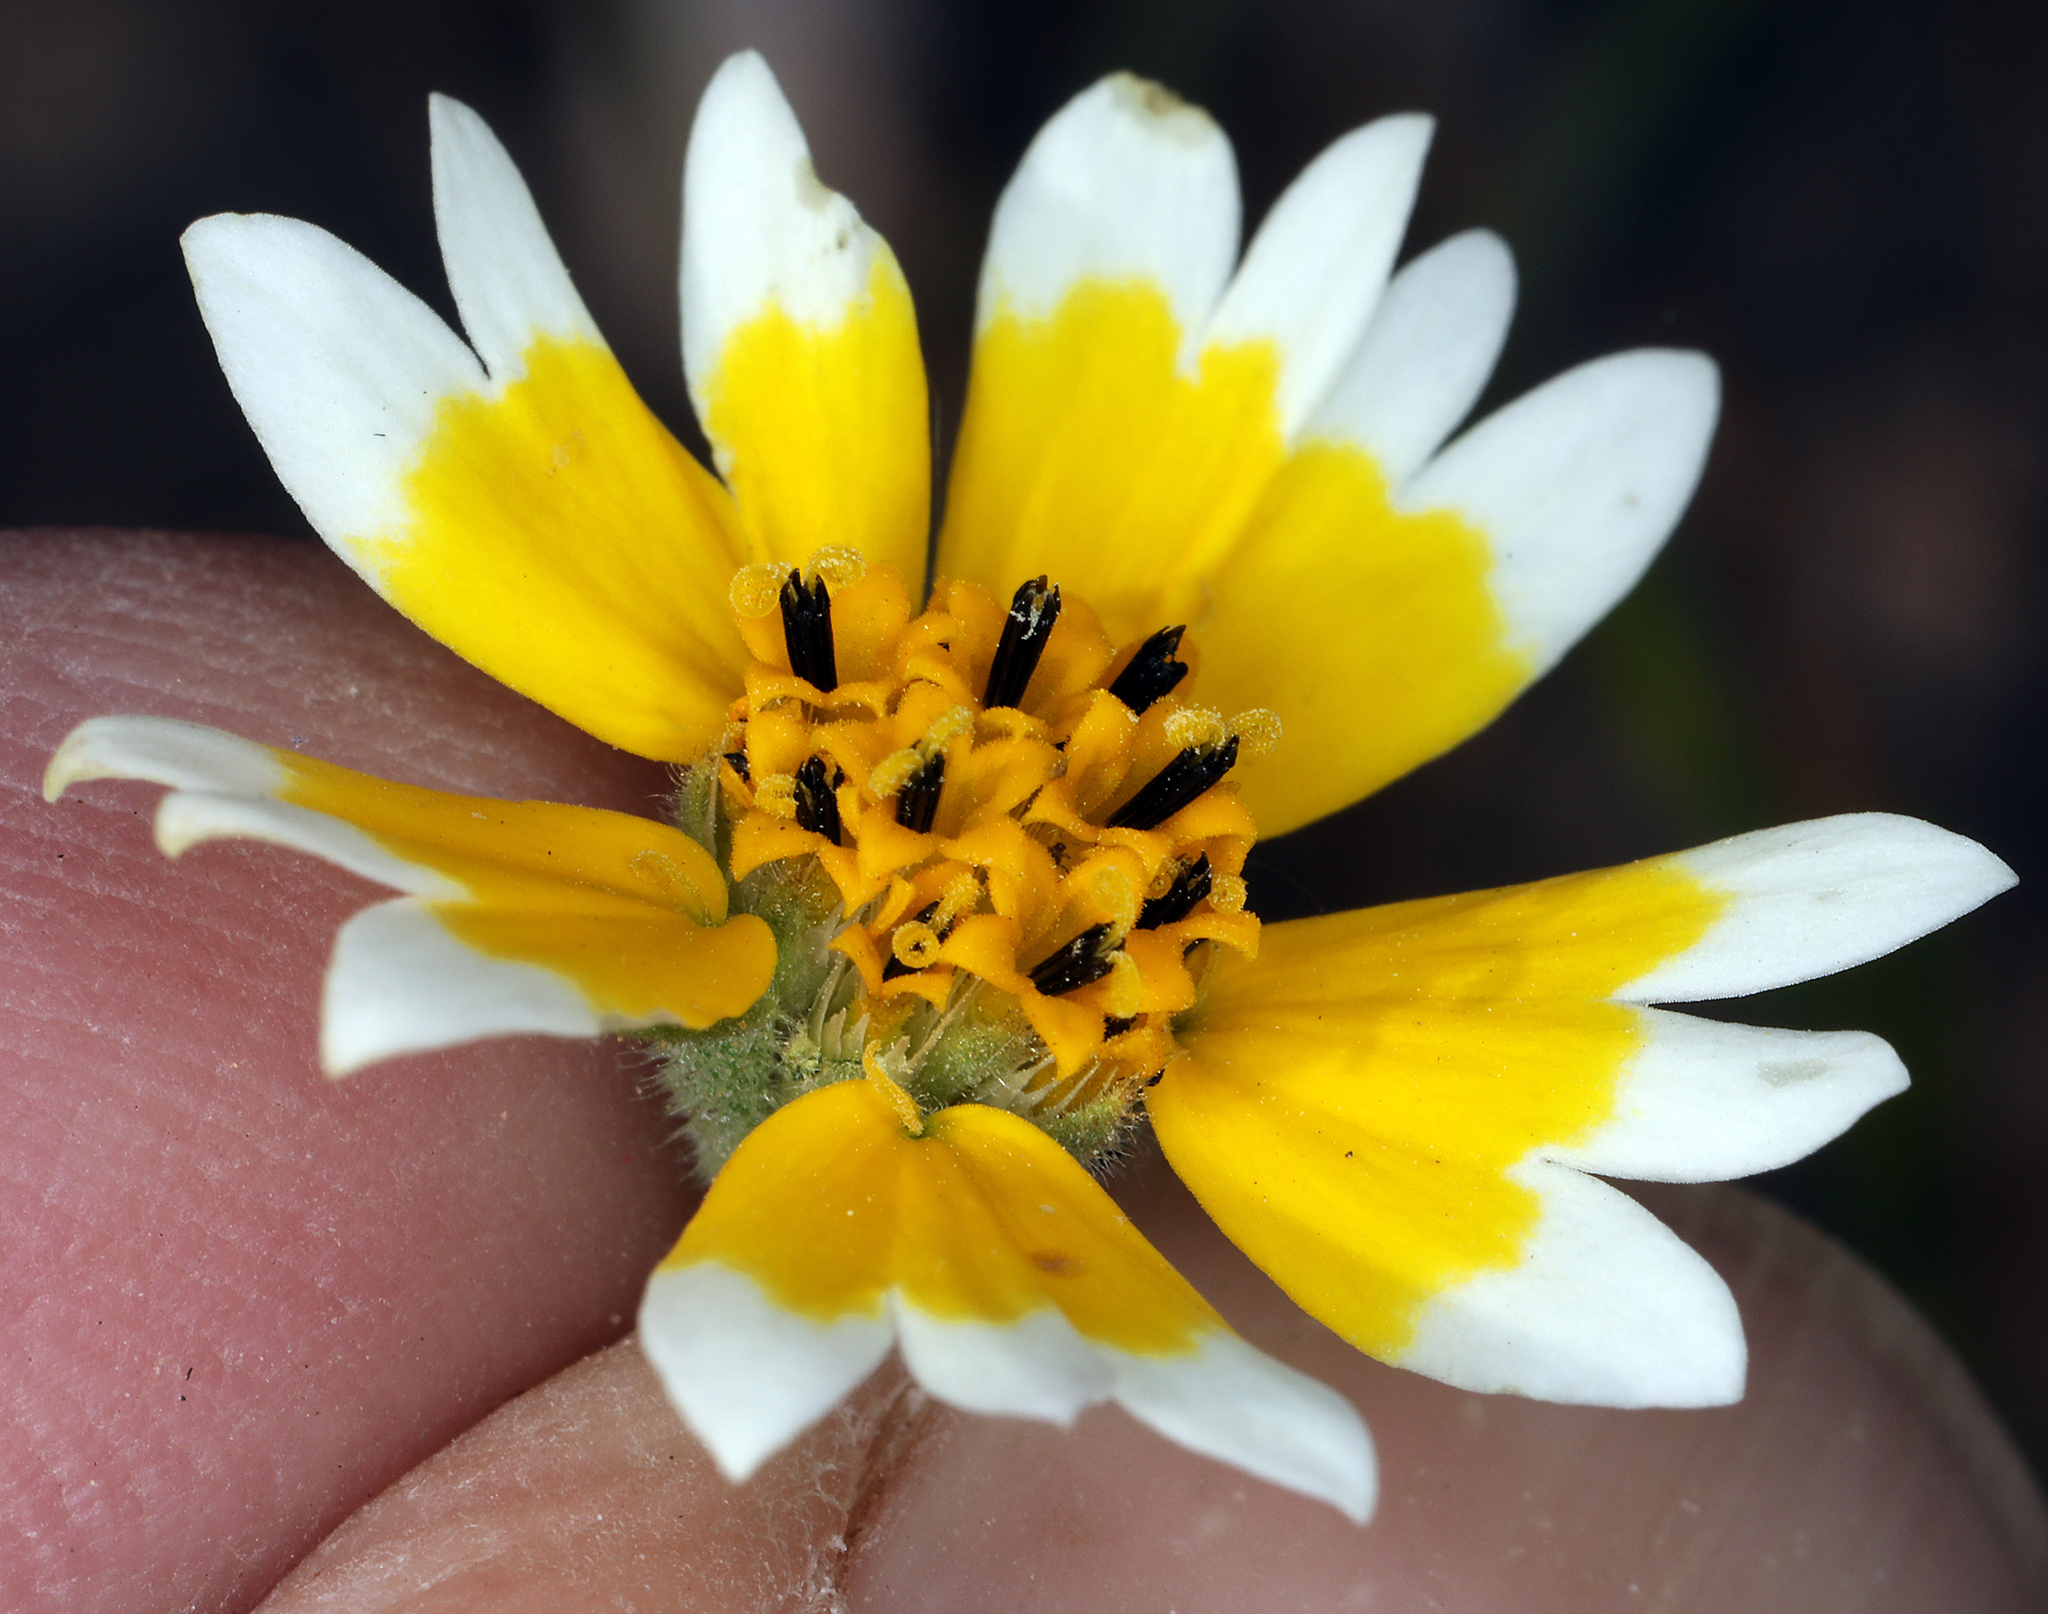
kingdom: Plantae
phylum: Tracheophyta
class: Magnoliopsida
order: Asterales
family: Asteraceae
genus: Layia
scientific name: Layia fremontii
